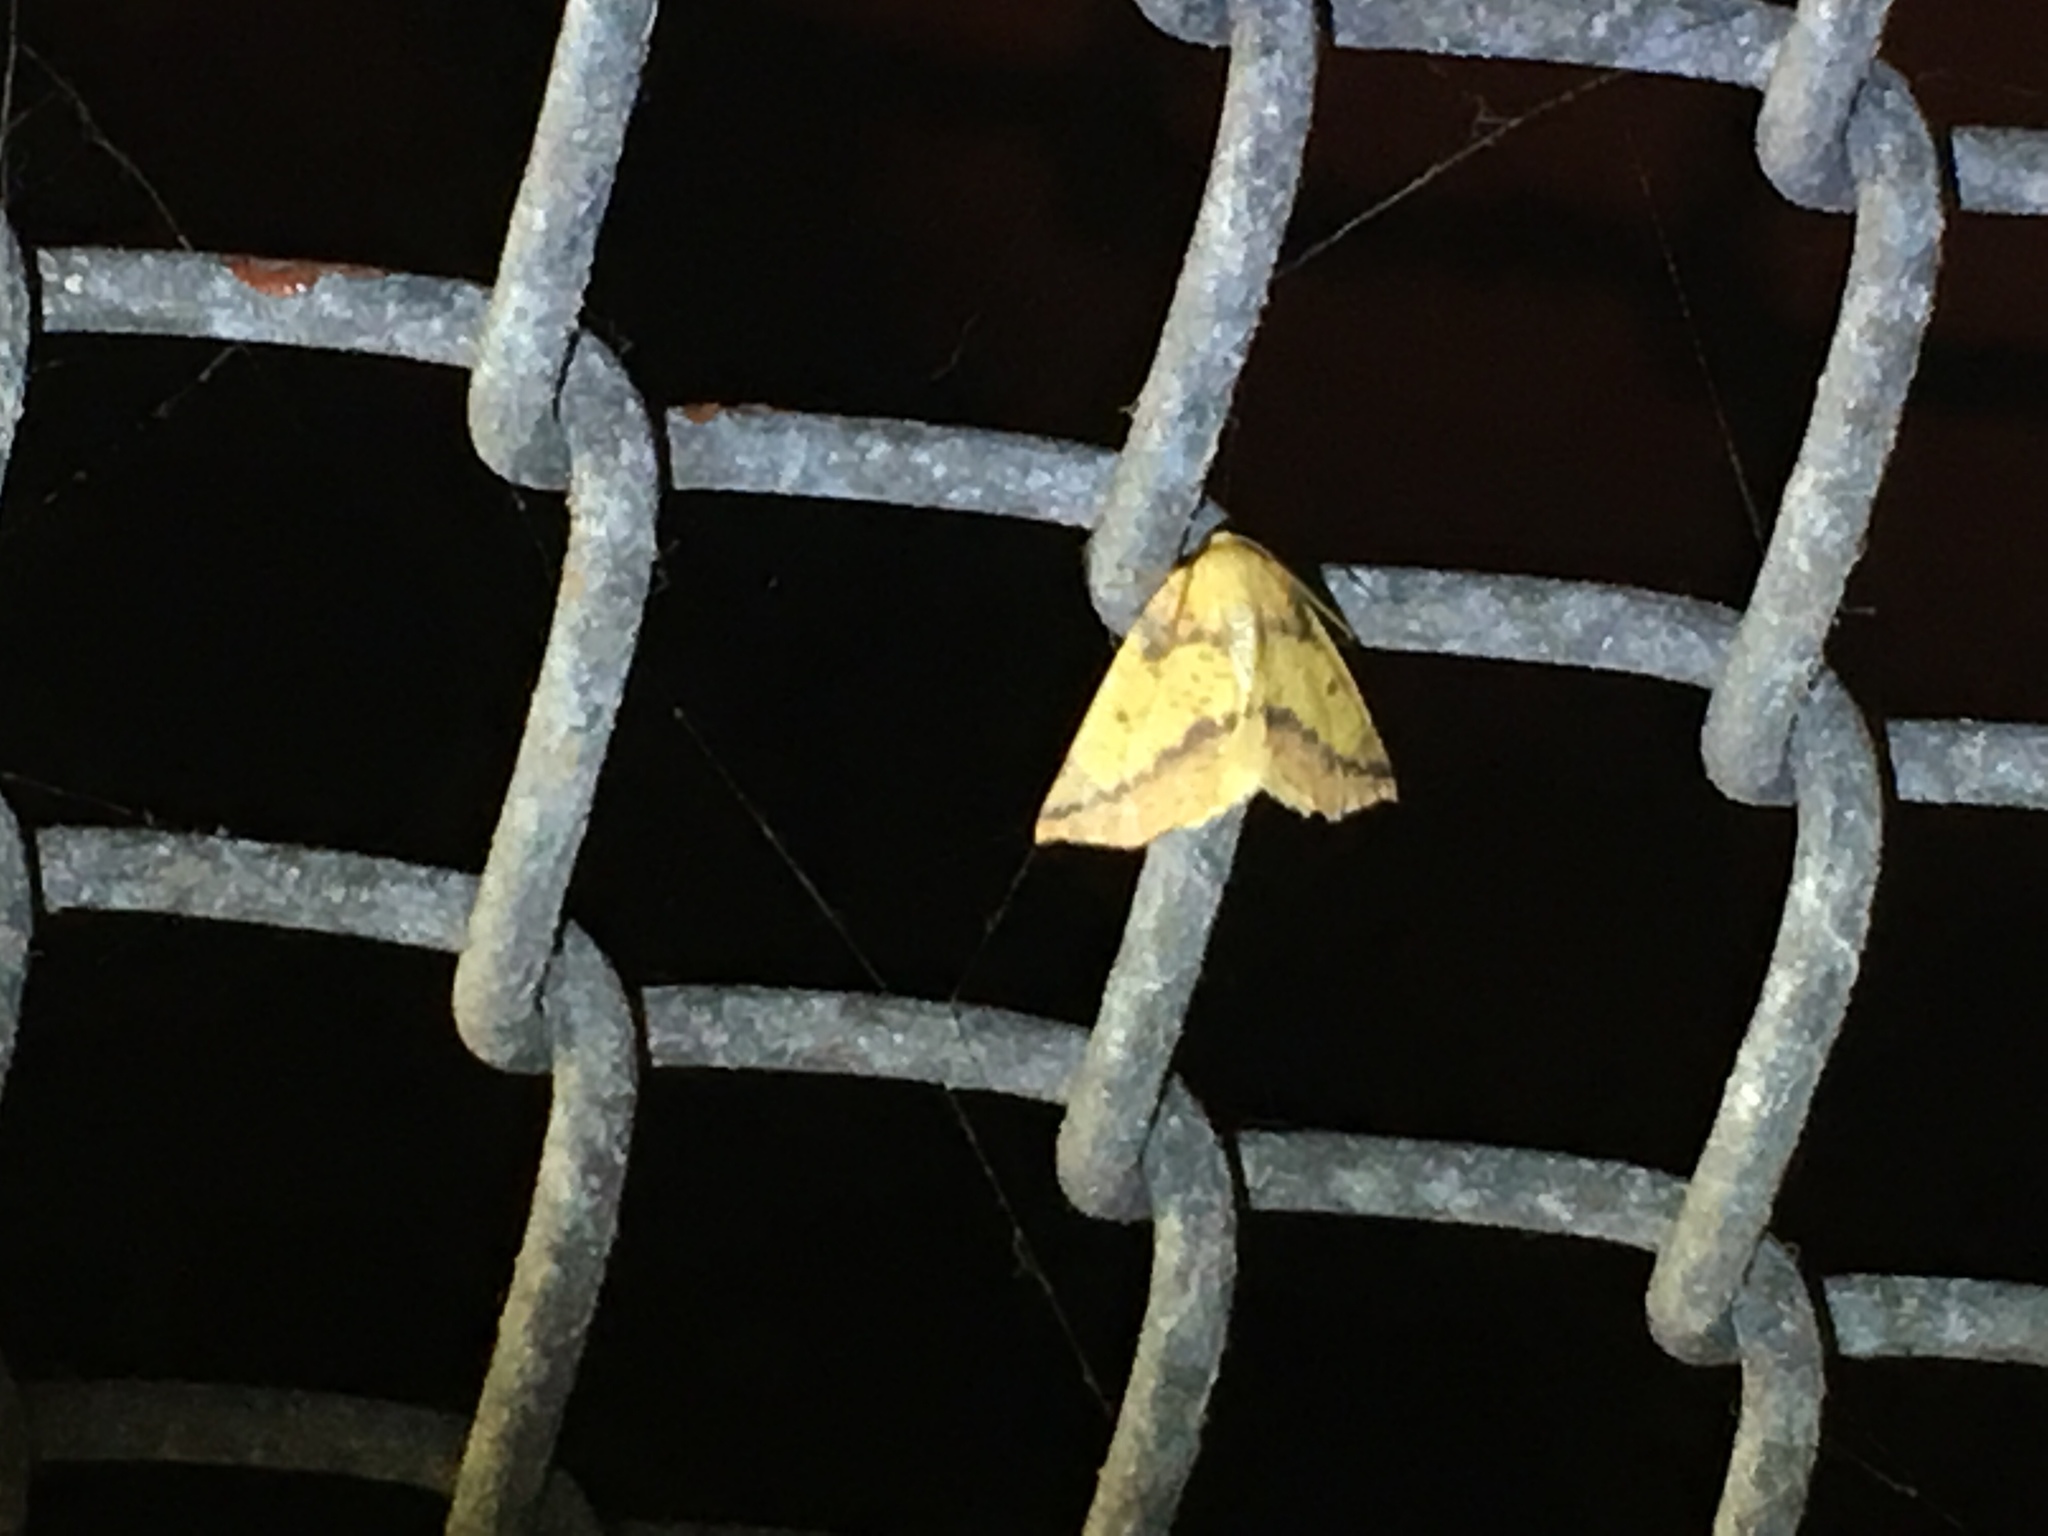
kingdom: Animalia
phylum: Arthropoda
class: Insecta
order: Lepidoptera
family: Geometridae
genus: Neoterpes
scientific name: Neoterpes edwardsata
